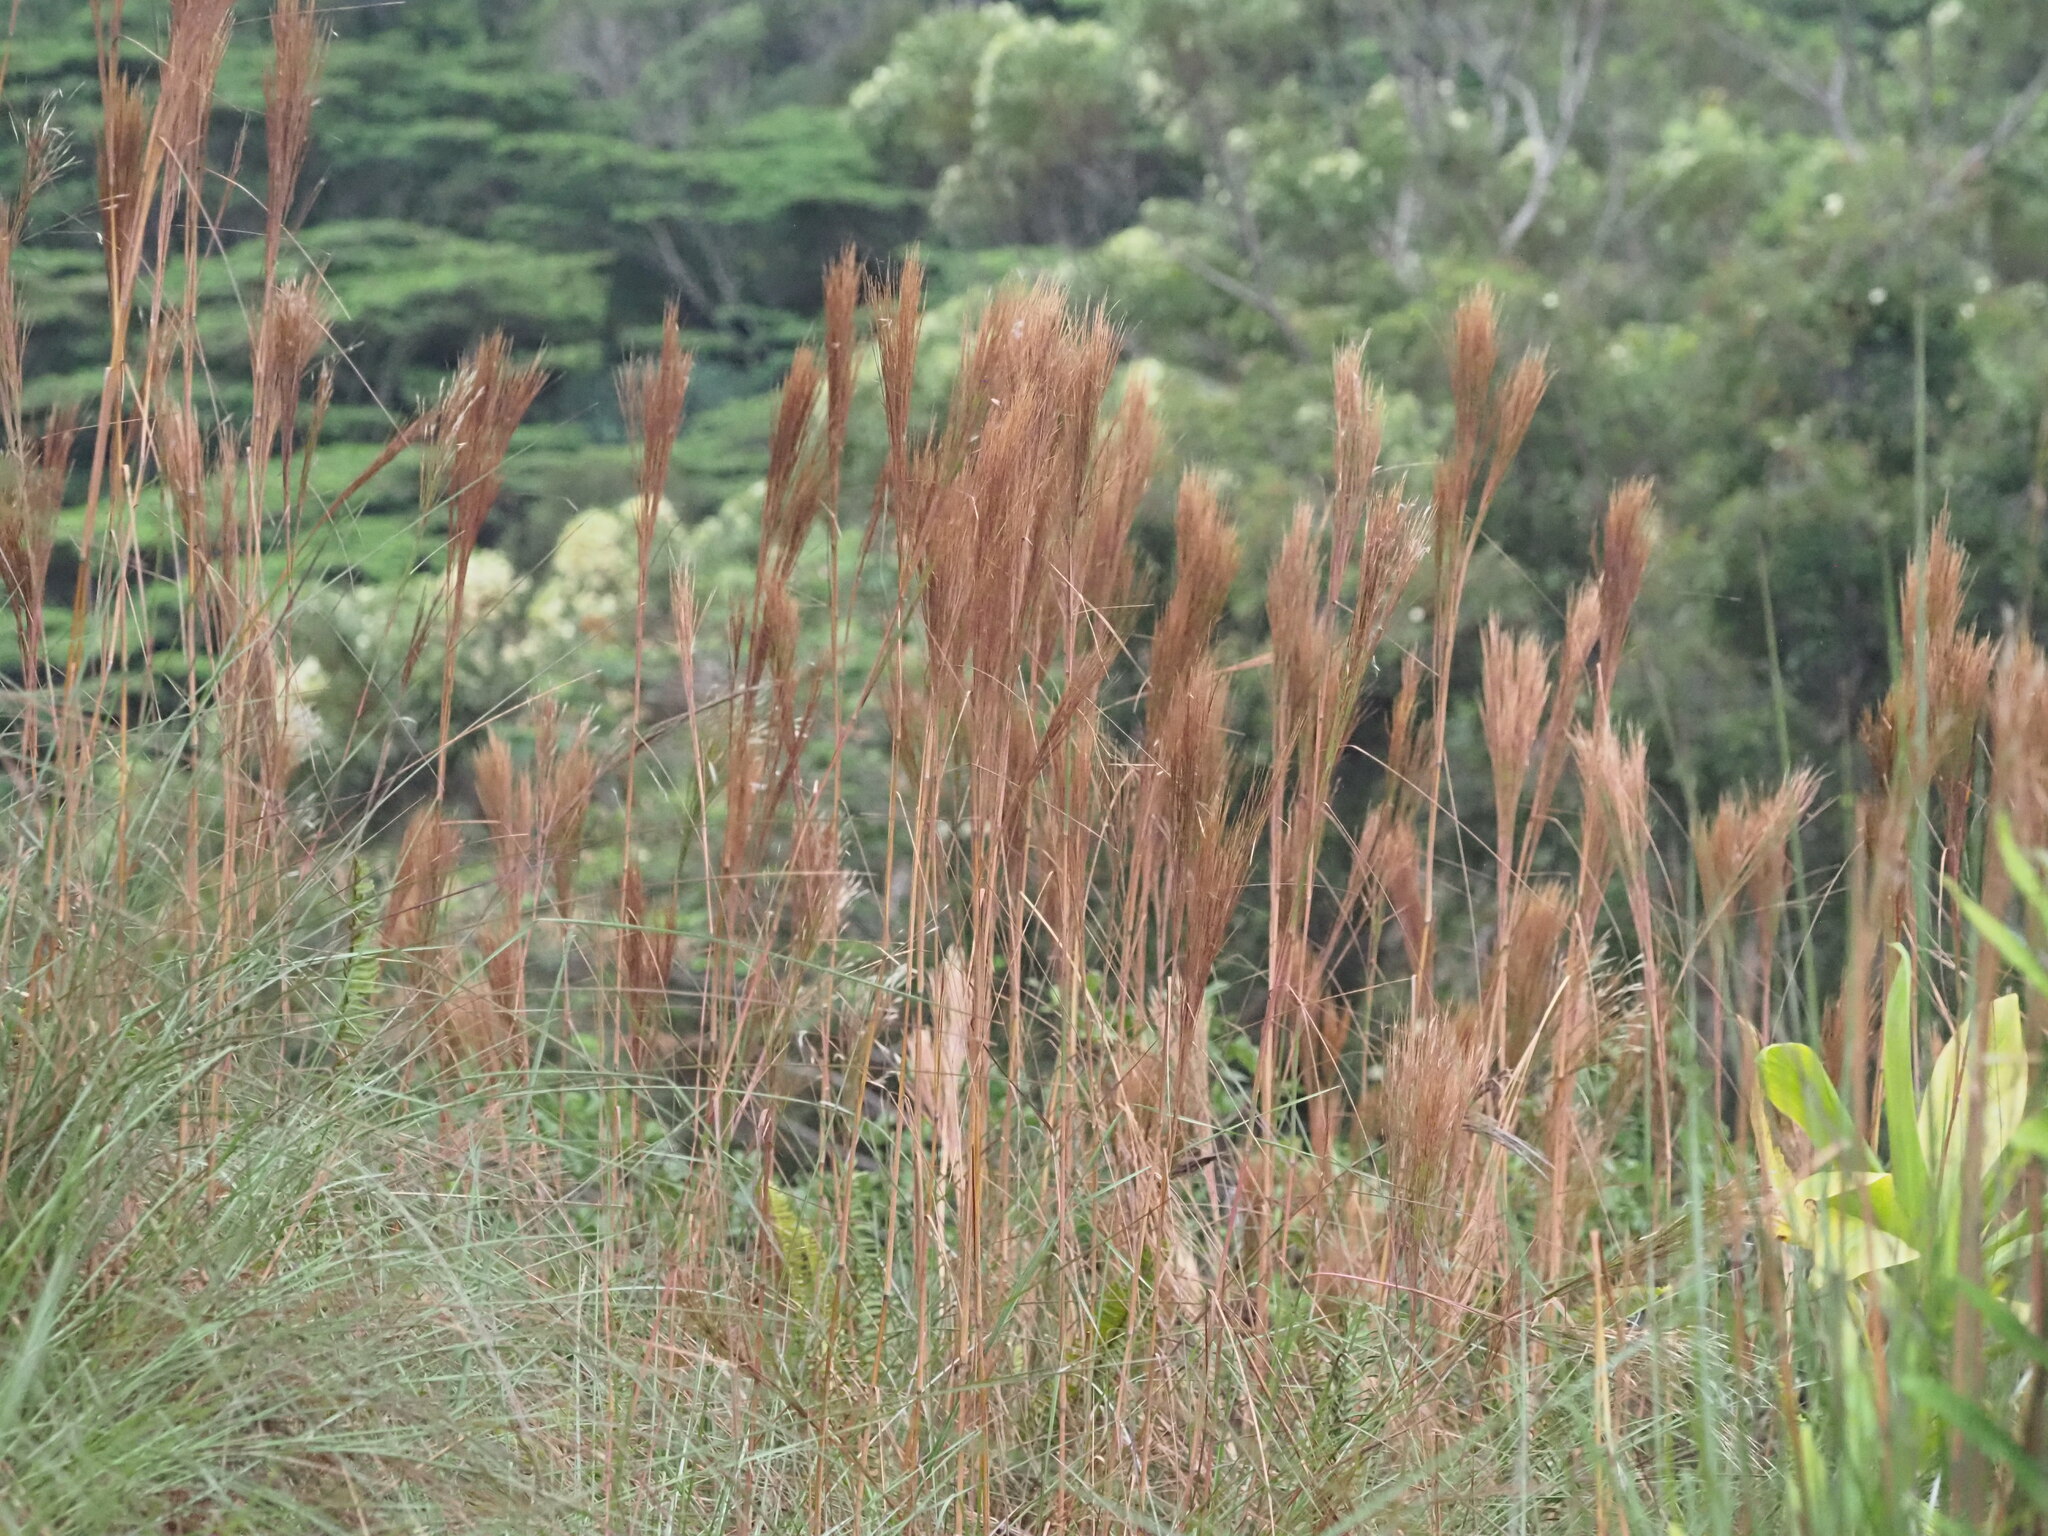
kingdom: Plantae
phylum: Tracheophyta
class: Liliopsida
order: Poales
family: Poaceae
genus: Andropogon
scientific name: Andropogon bicornis
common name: West indian foxtail grass
